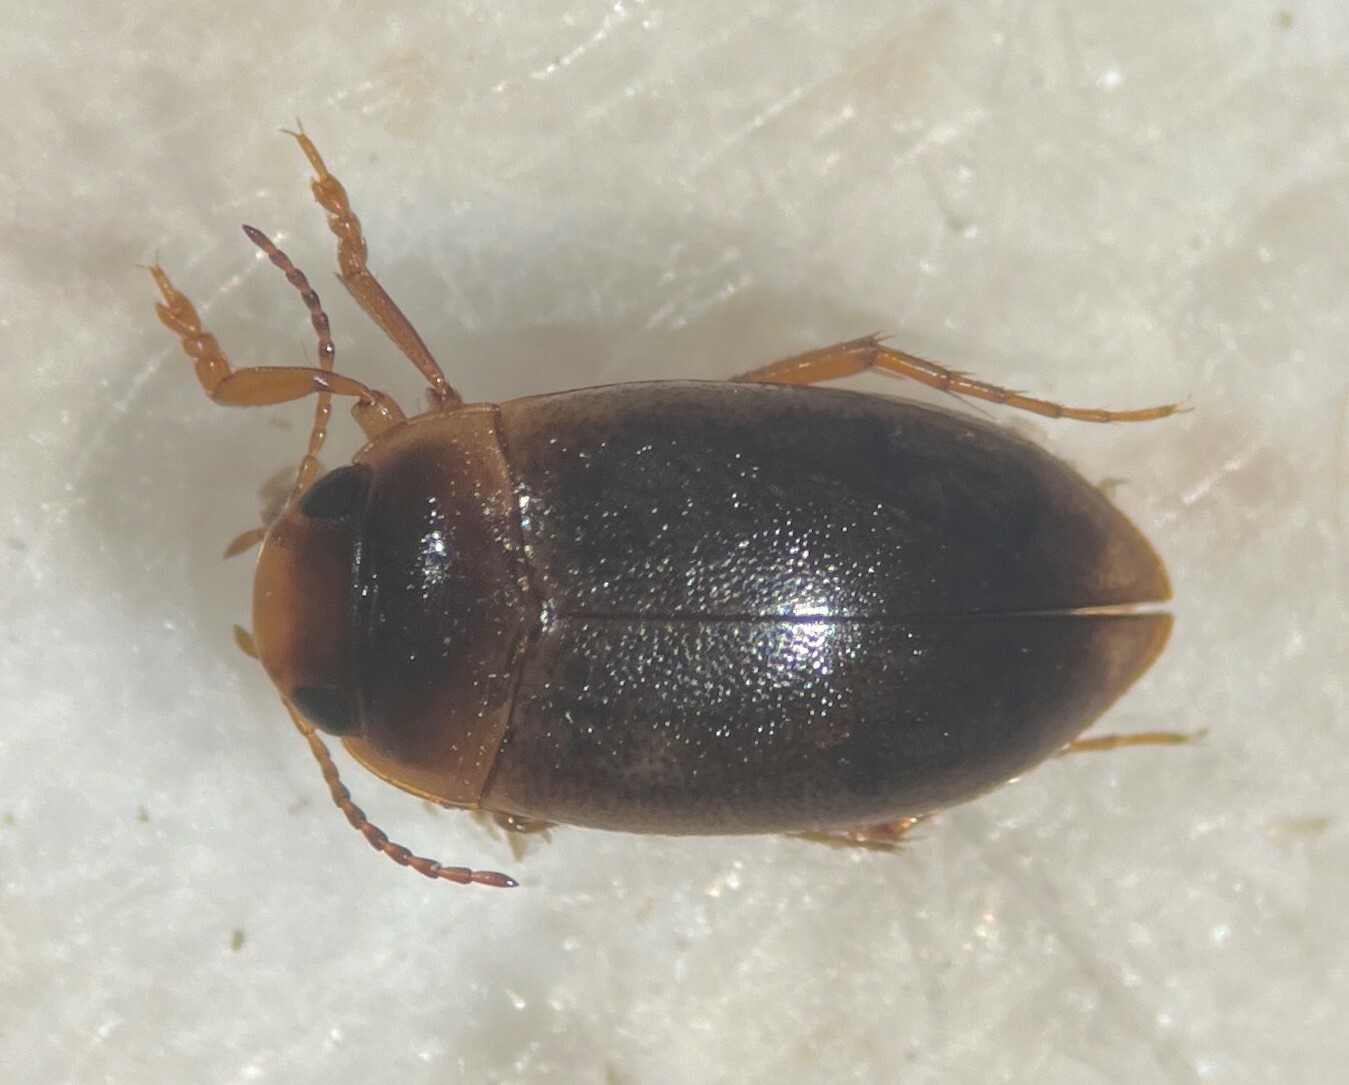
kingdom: Animalia
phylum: Arthropoda
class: Insecta
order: Coleoptera
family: Dytiscidae
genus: Hydrocolus
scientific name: Hydrocolus paugus
